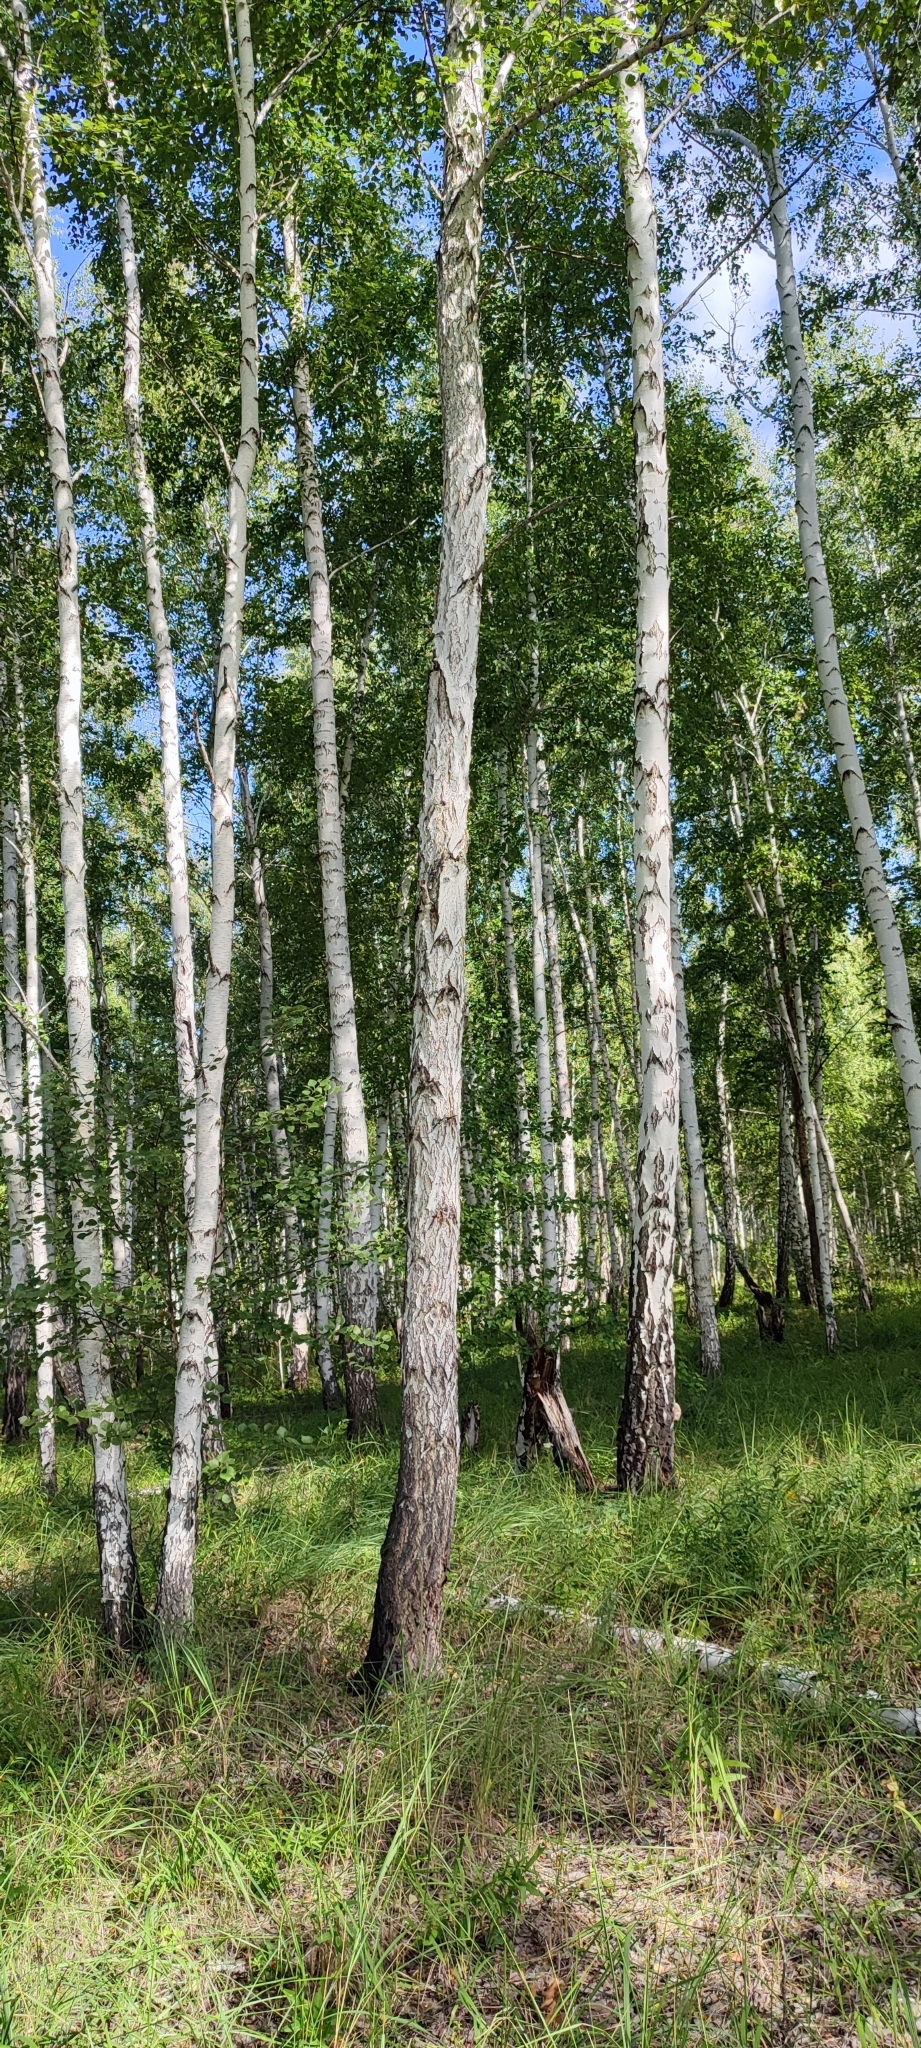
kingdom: Plantae
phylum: Tracheophyta
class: Magnoliopsida
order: Fagales
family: Betulaceae
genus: Betula
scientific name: Betula pendula
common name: Silver birch
